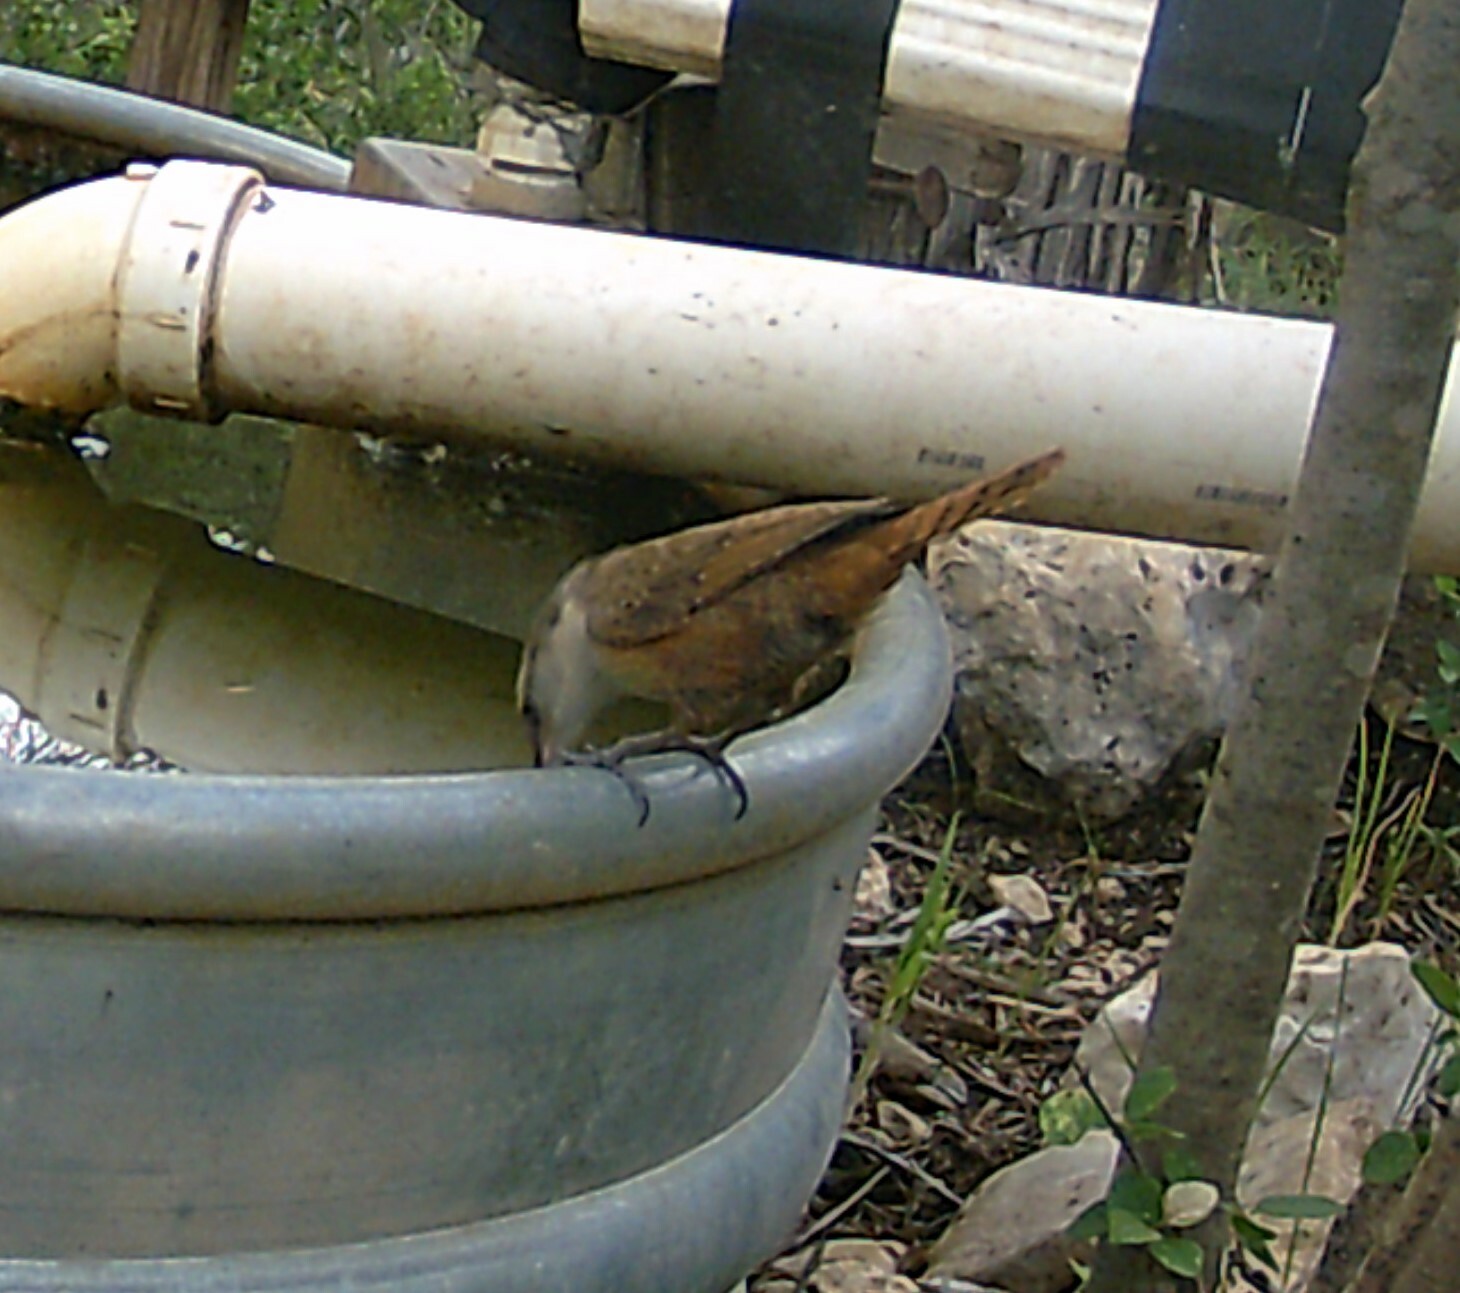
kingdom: Animalia
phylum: Chordata
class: Aves
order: Passeriformes
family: Troglodytidae
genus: Catherpes
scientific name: Catherpes mexicanus
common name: Canyon wren
